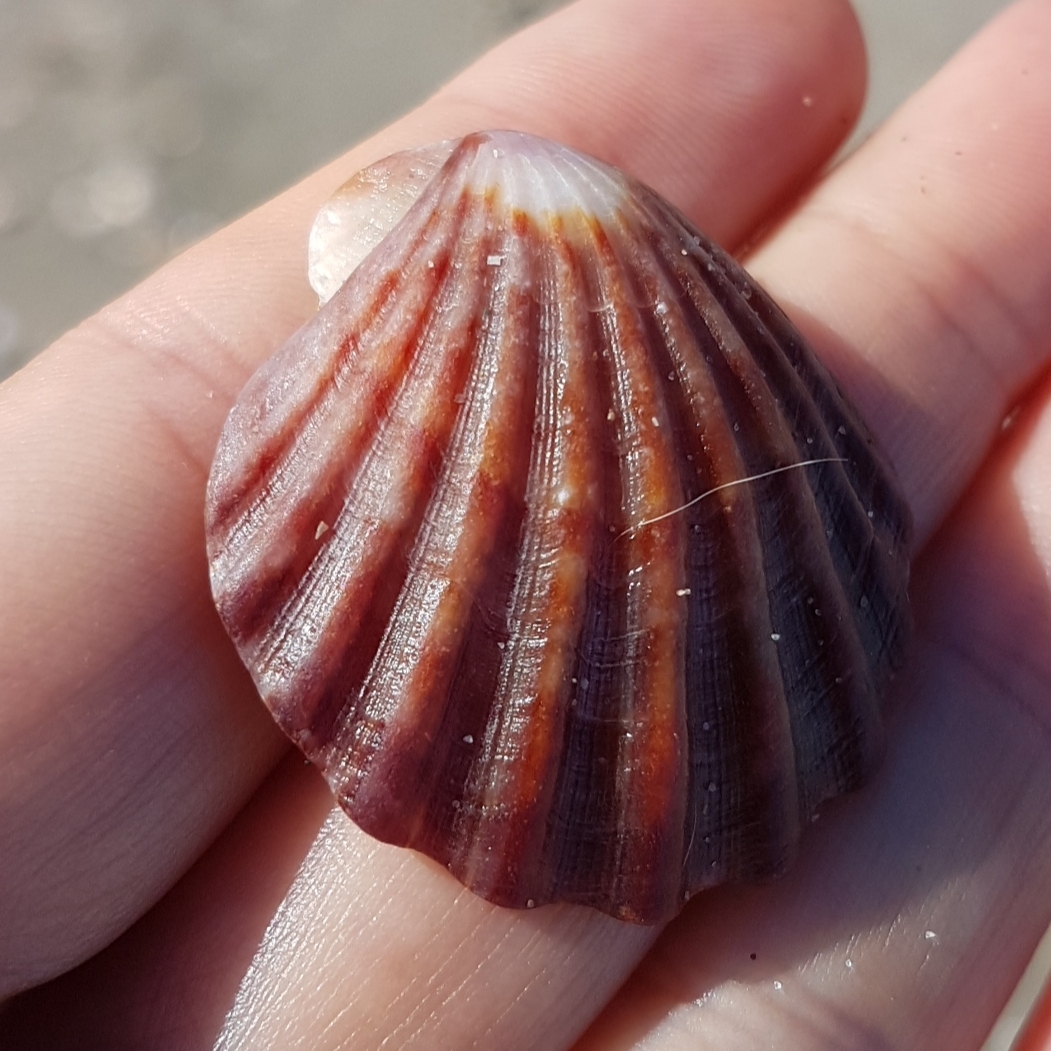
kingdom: Animalia
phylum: Mollusca
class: Bivalvia
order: Pectinida
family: Pectinidae
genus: Flexopecten
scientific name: Flexopecten glaber
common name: Smooth scallop
